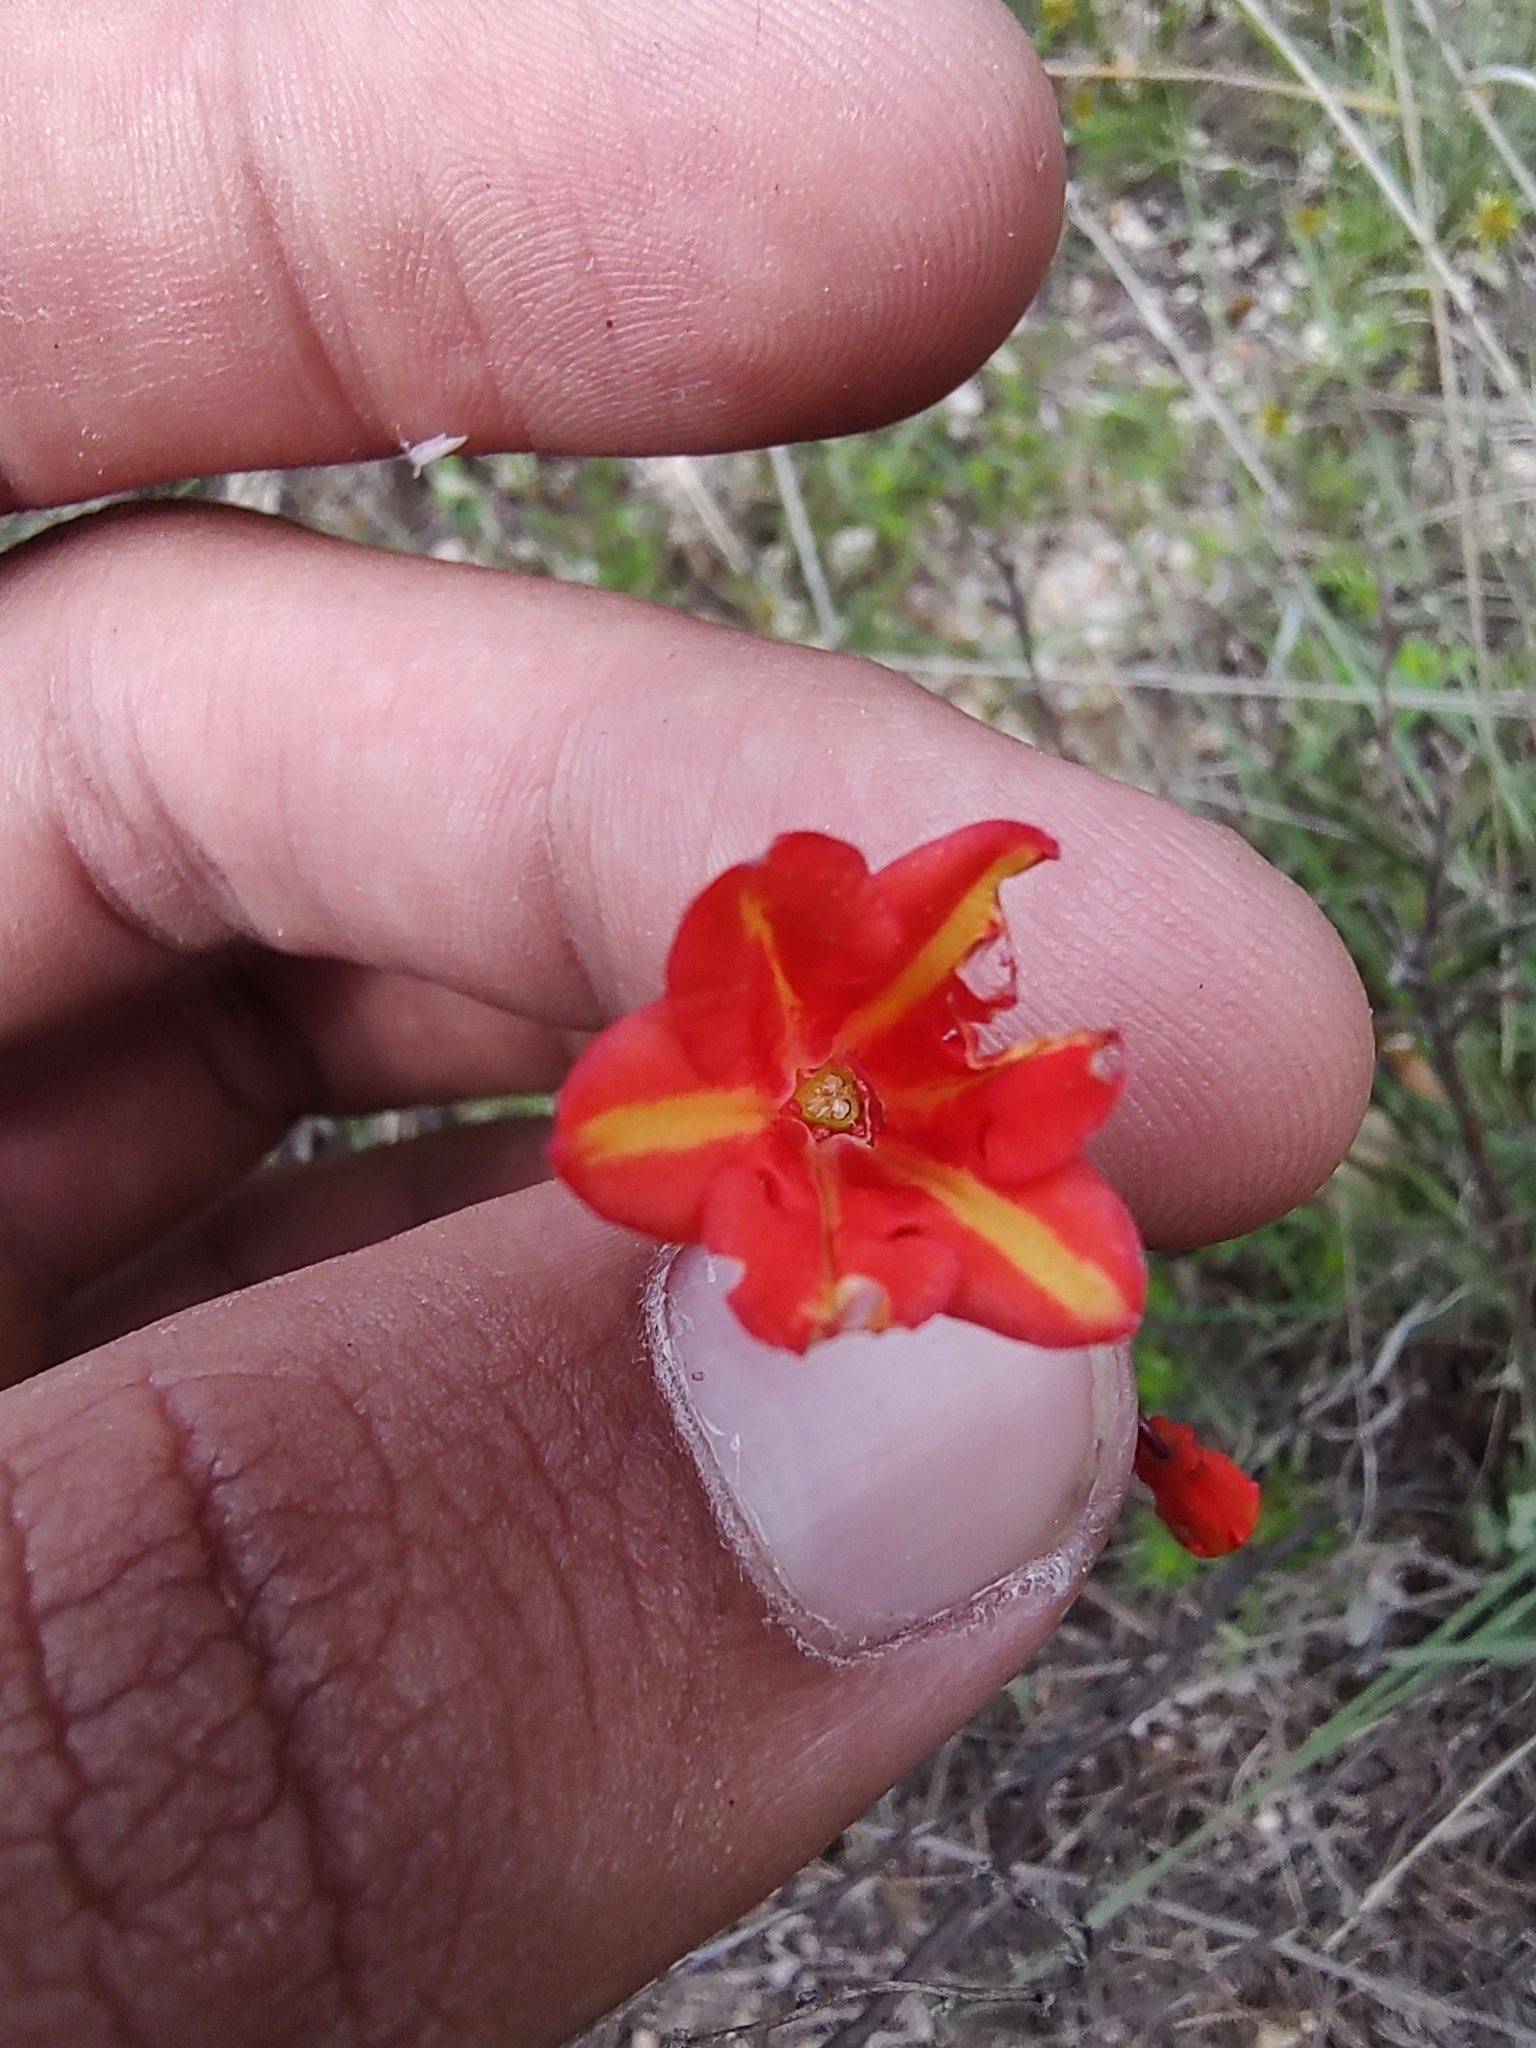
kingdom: Plantae
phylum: Tracheophyta
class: Liliopsida
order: Asparagales
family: Asparagaceae
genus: Bessera
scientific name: Bessera tenuiflora
